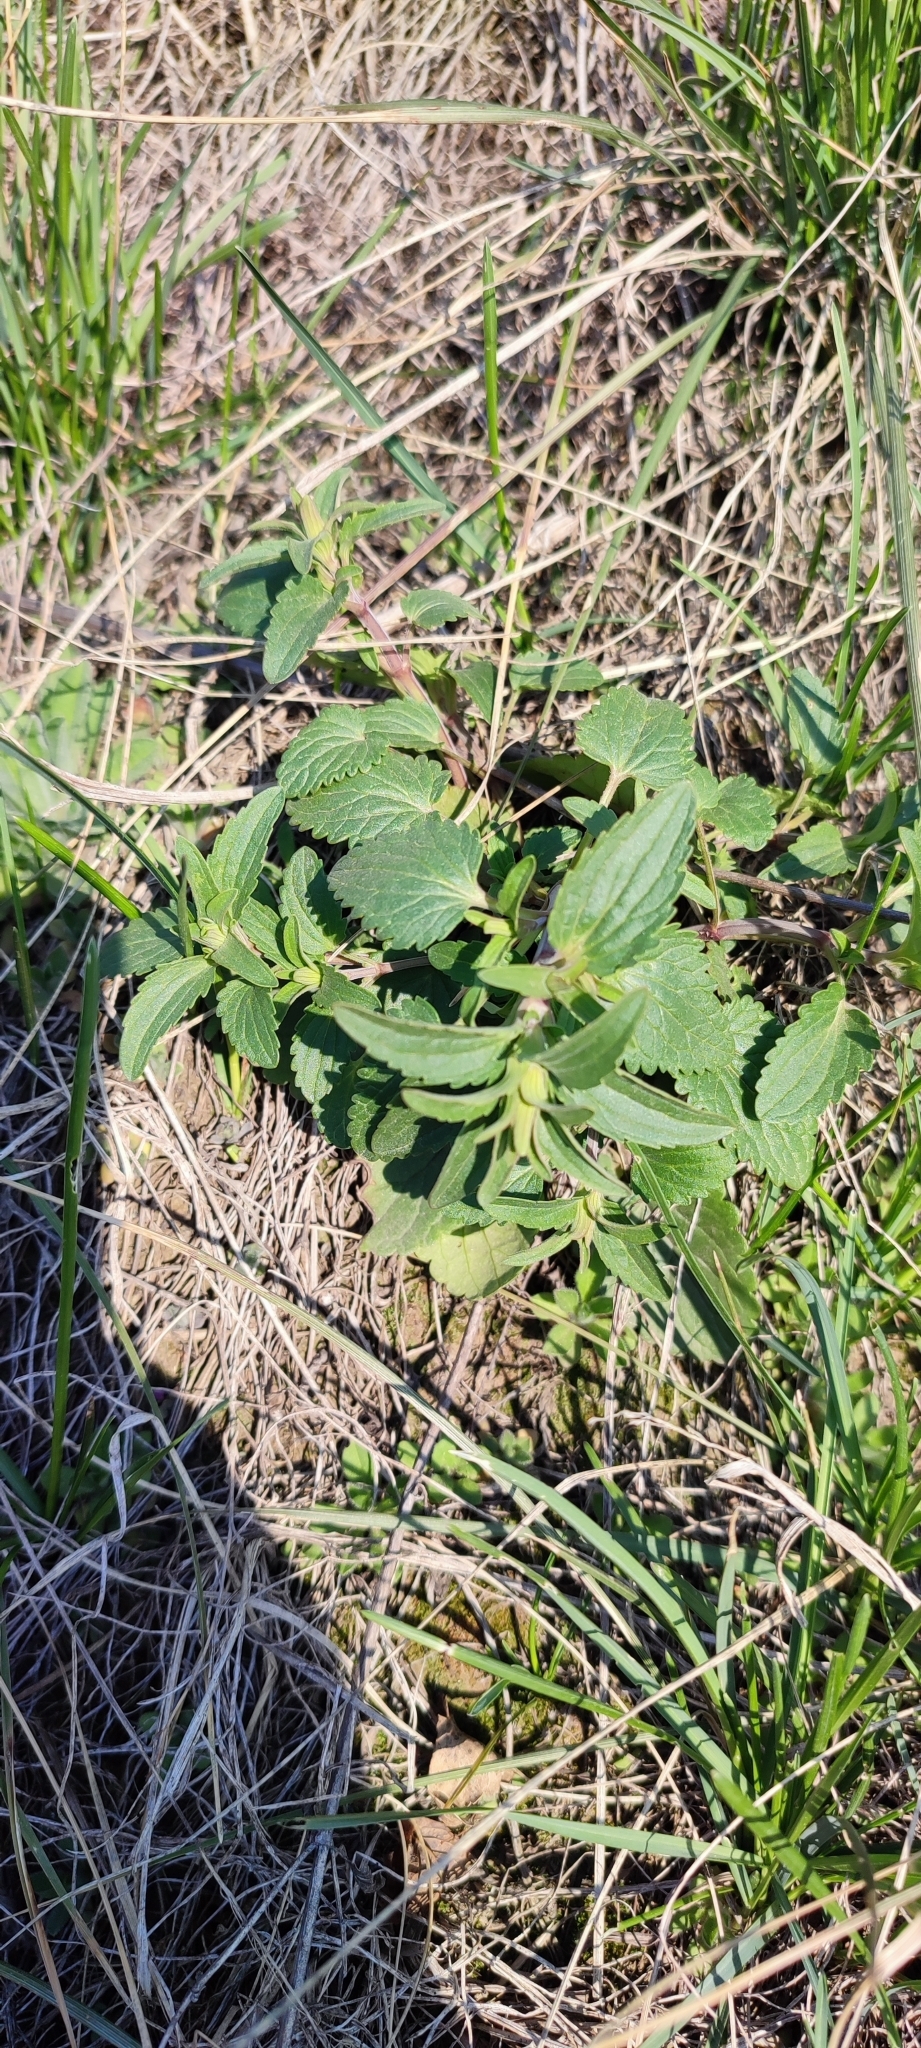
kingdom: Plantae
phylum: Tracheophyta
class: Magnoliopsida
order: Lamiales
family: Lamiaceae
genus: Dracocephalum
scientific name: Dracocephalum thymiflorum
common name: Thymeleaf dragonhead
